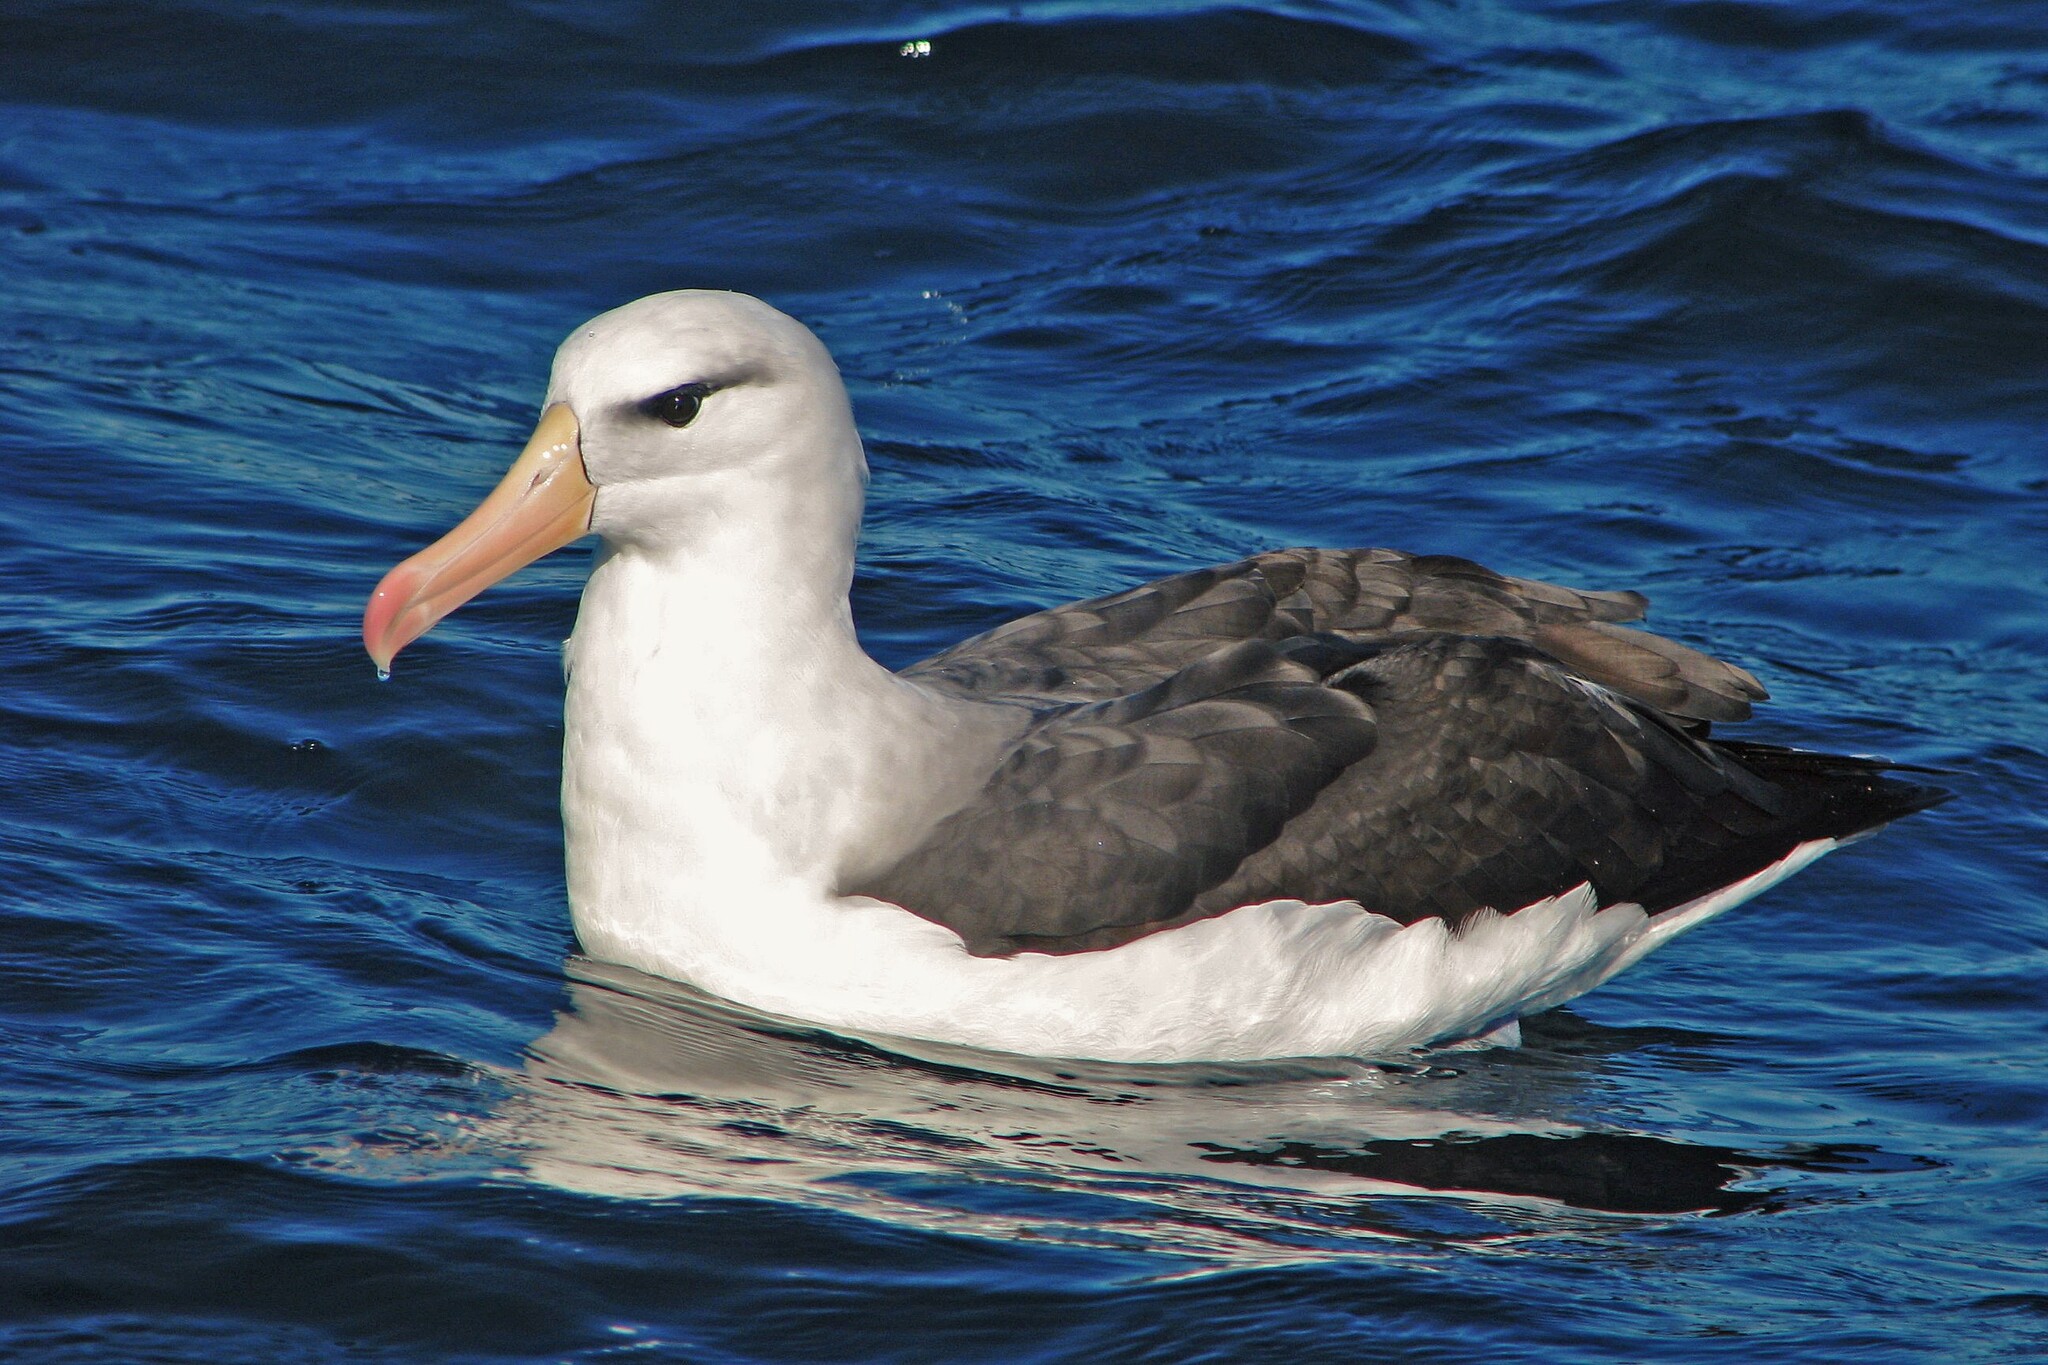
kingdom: Animalia
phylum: Chordata
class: Aves
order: Procellariiformes
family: Diomedeidae
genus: Thalassarche
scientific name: Thalassarche melanophris
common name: Black-browed albatross
